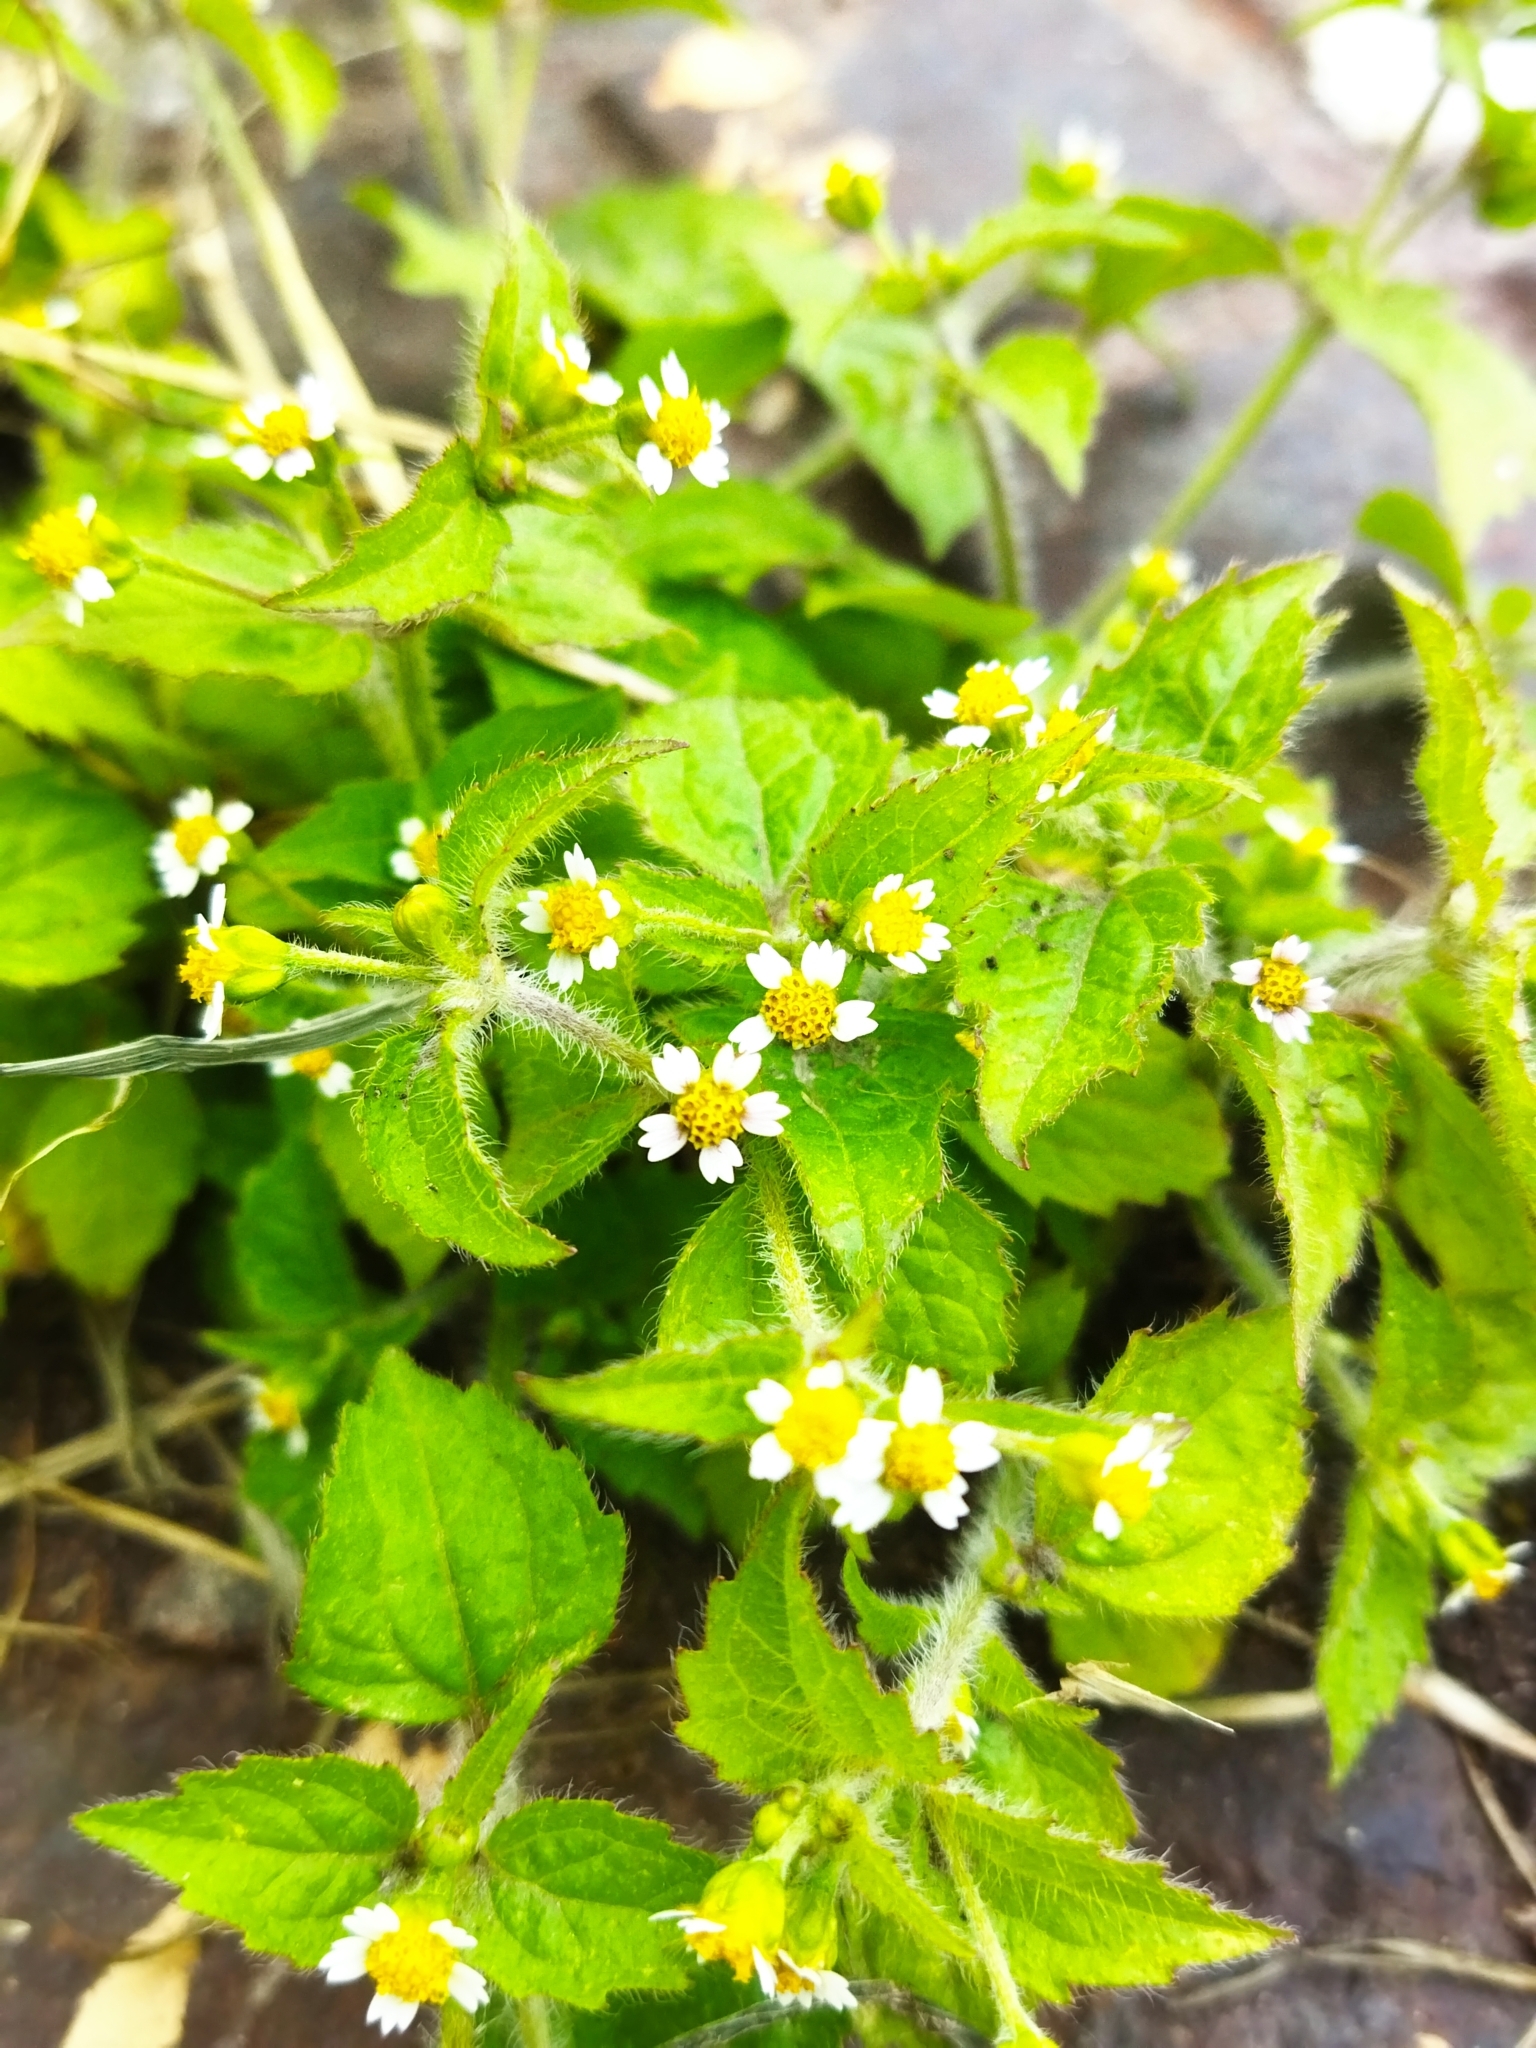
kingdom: Plantae
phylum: Tracheophyta
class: Magnoliopsida
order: Asterales
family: Asteraceae
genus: Galinsoga
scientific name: Galinsoga quadriradiata
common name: Shaggy soldier
